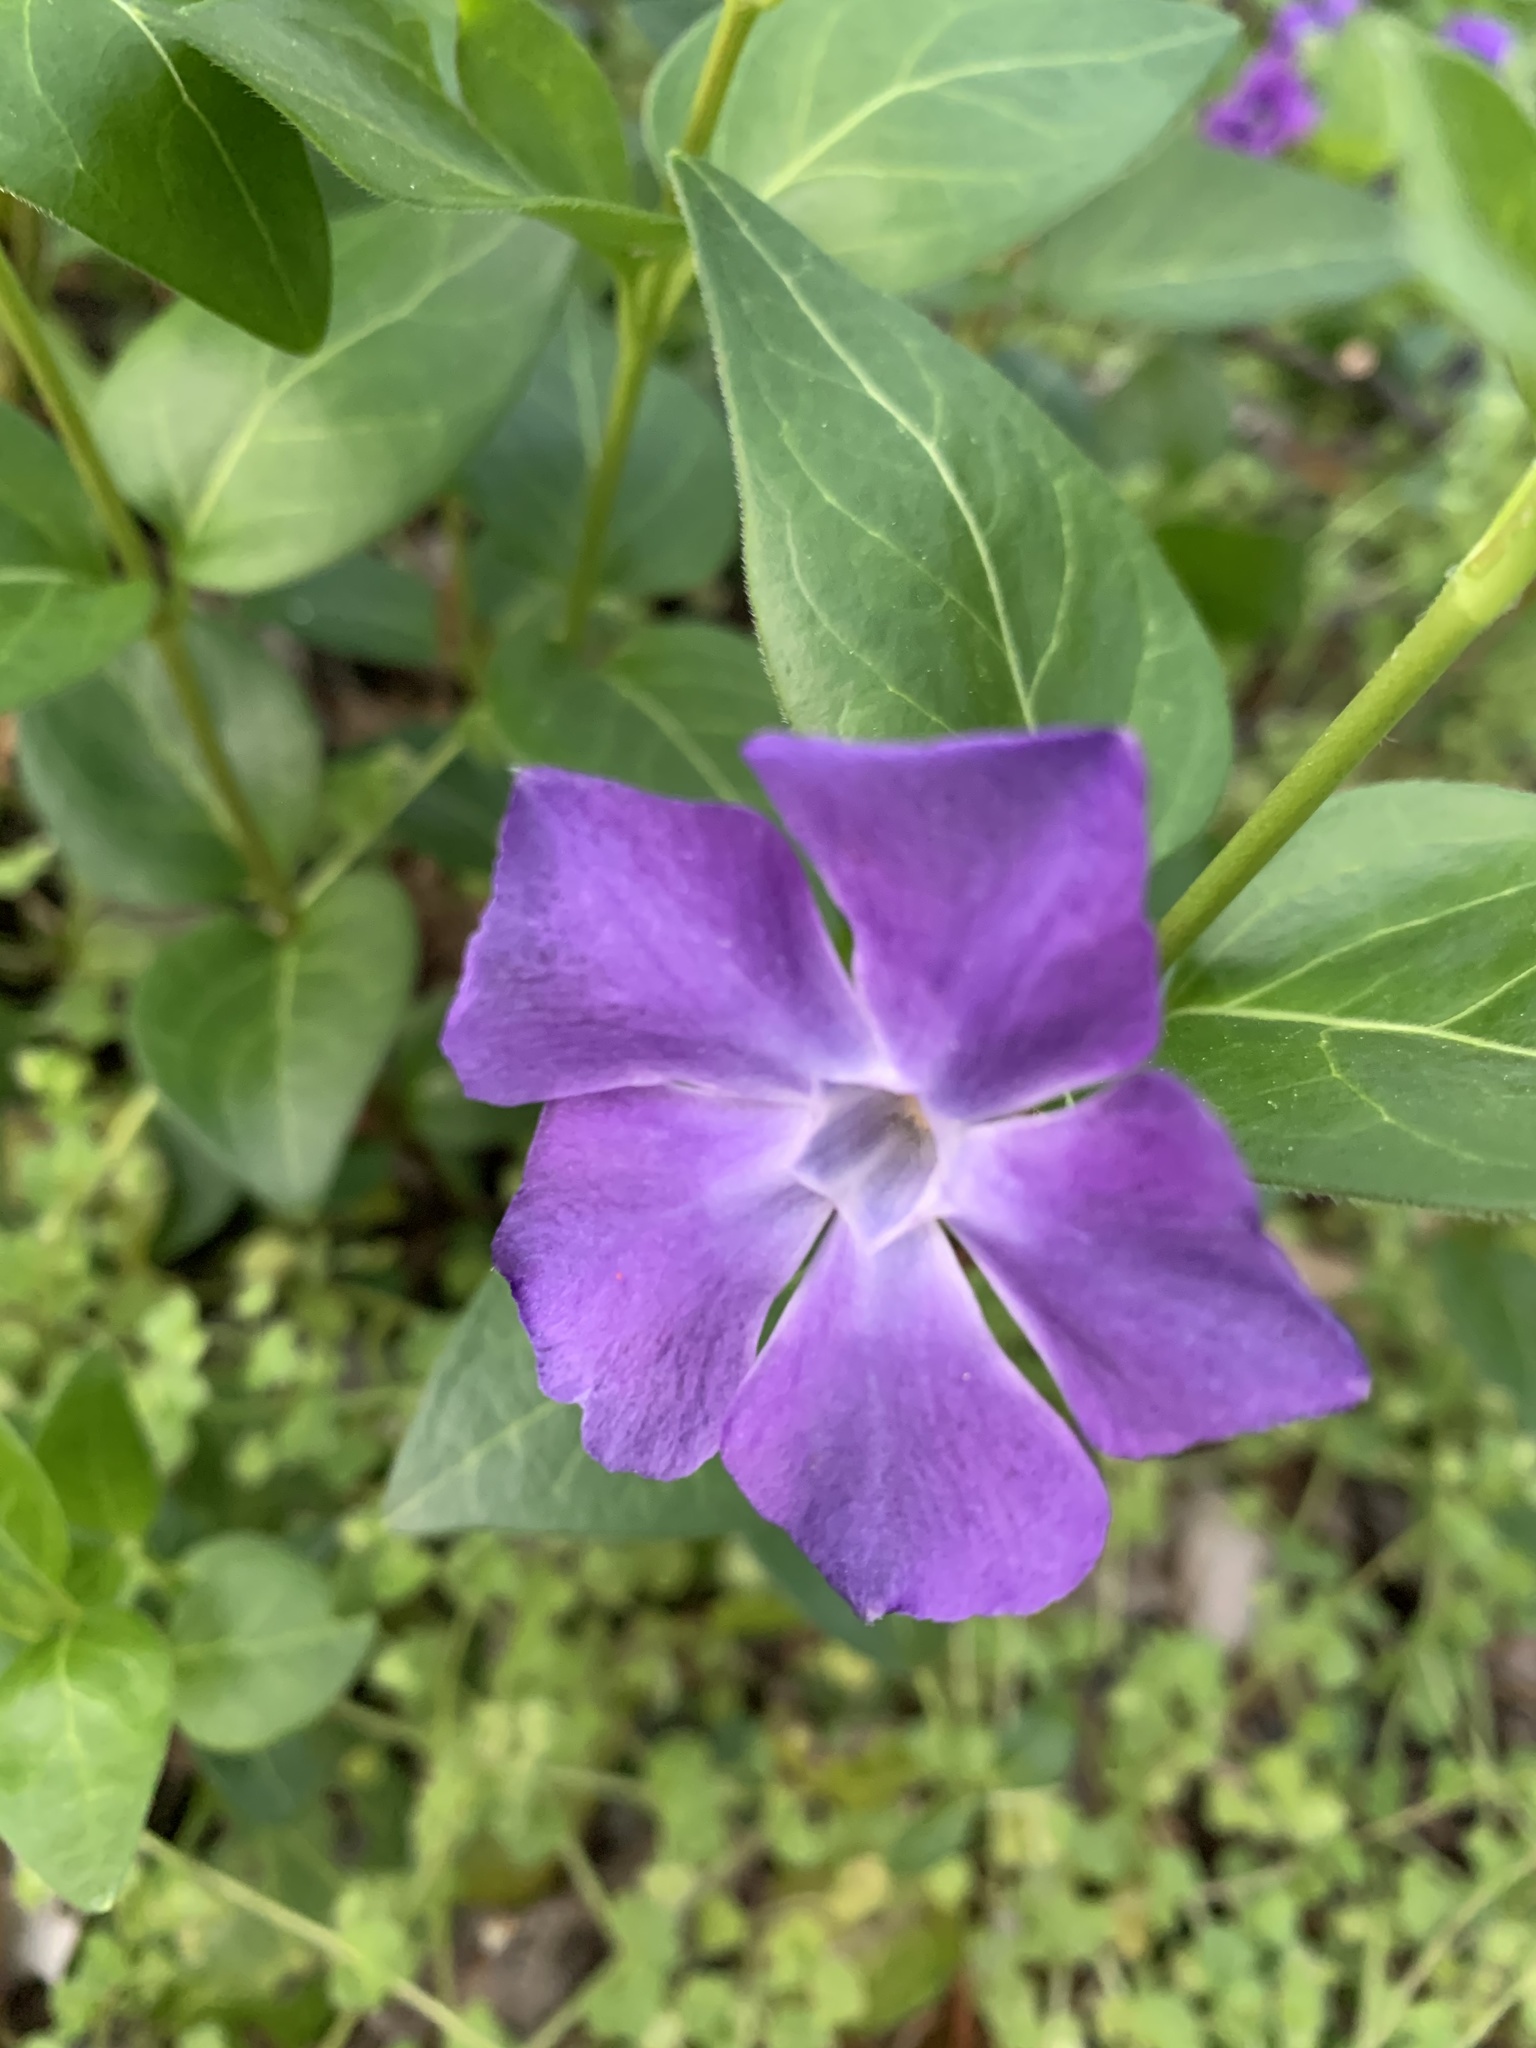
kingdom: Plantae
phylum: Tracheophyta
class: Magnoliopsida
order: Gentianales
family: Apocynaceae
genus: Vinca
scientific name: Vinca major
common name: Greater periwinkle
